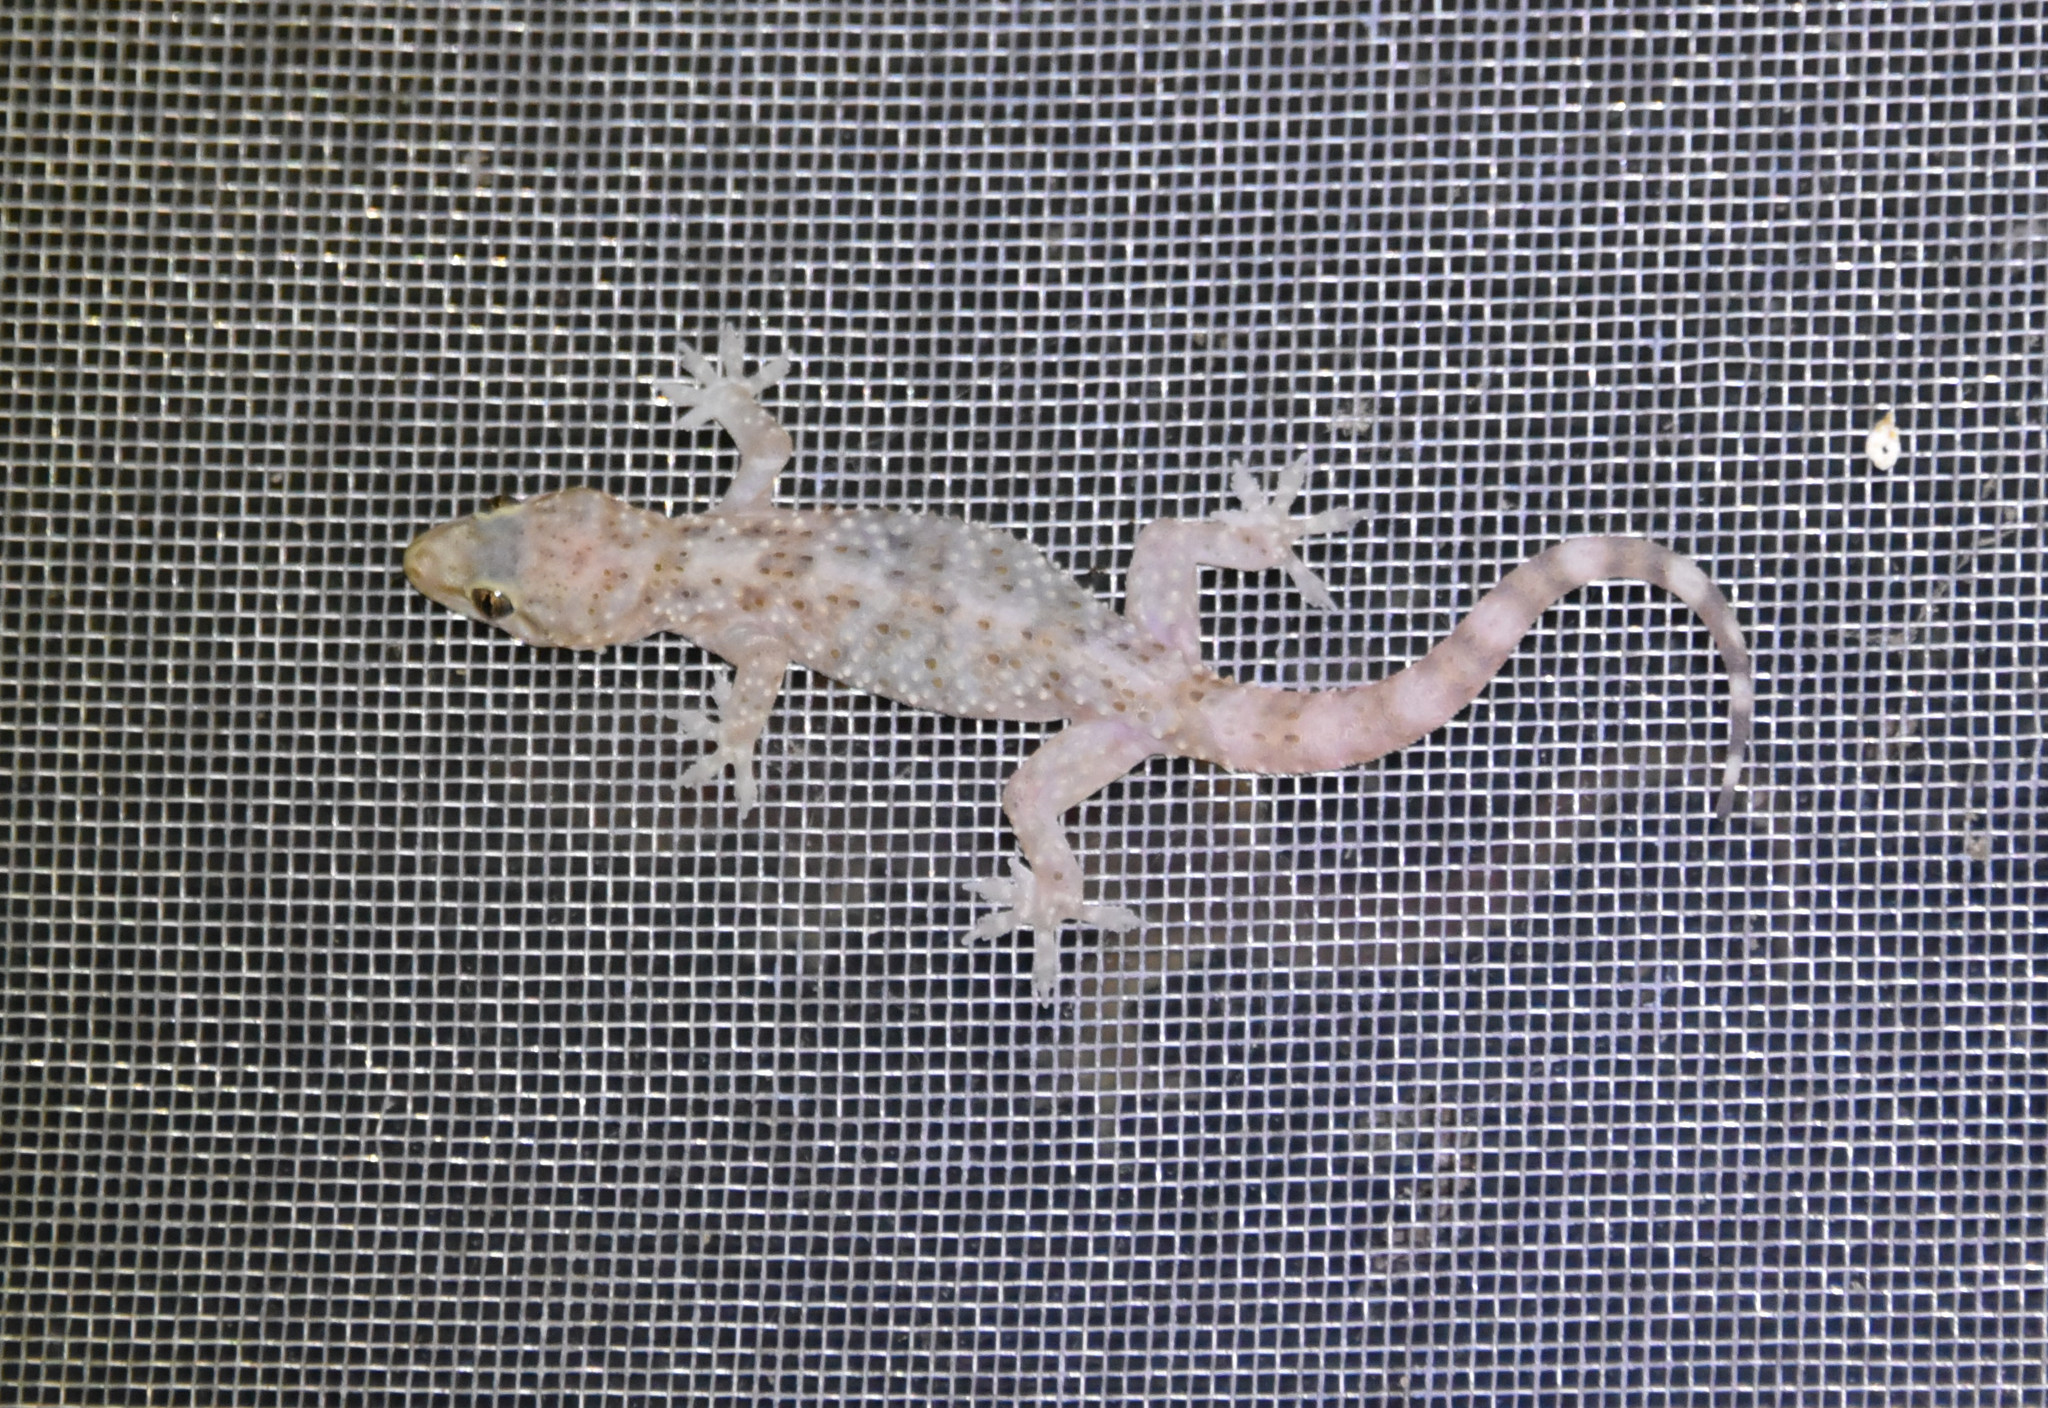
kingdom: Animalia
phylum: Chordata
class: Squamata
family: Gekkonidae
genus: Hemidactylus
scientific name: Hemidactylus turcicus
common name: Turkish gecko
